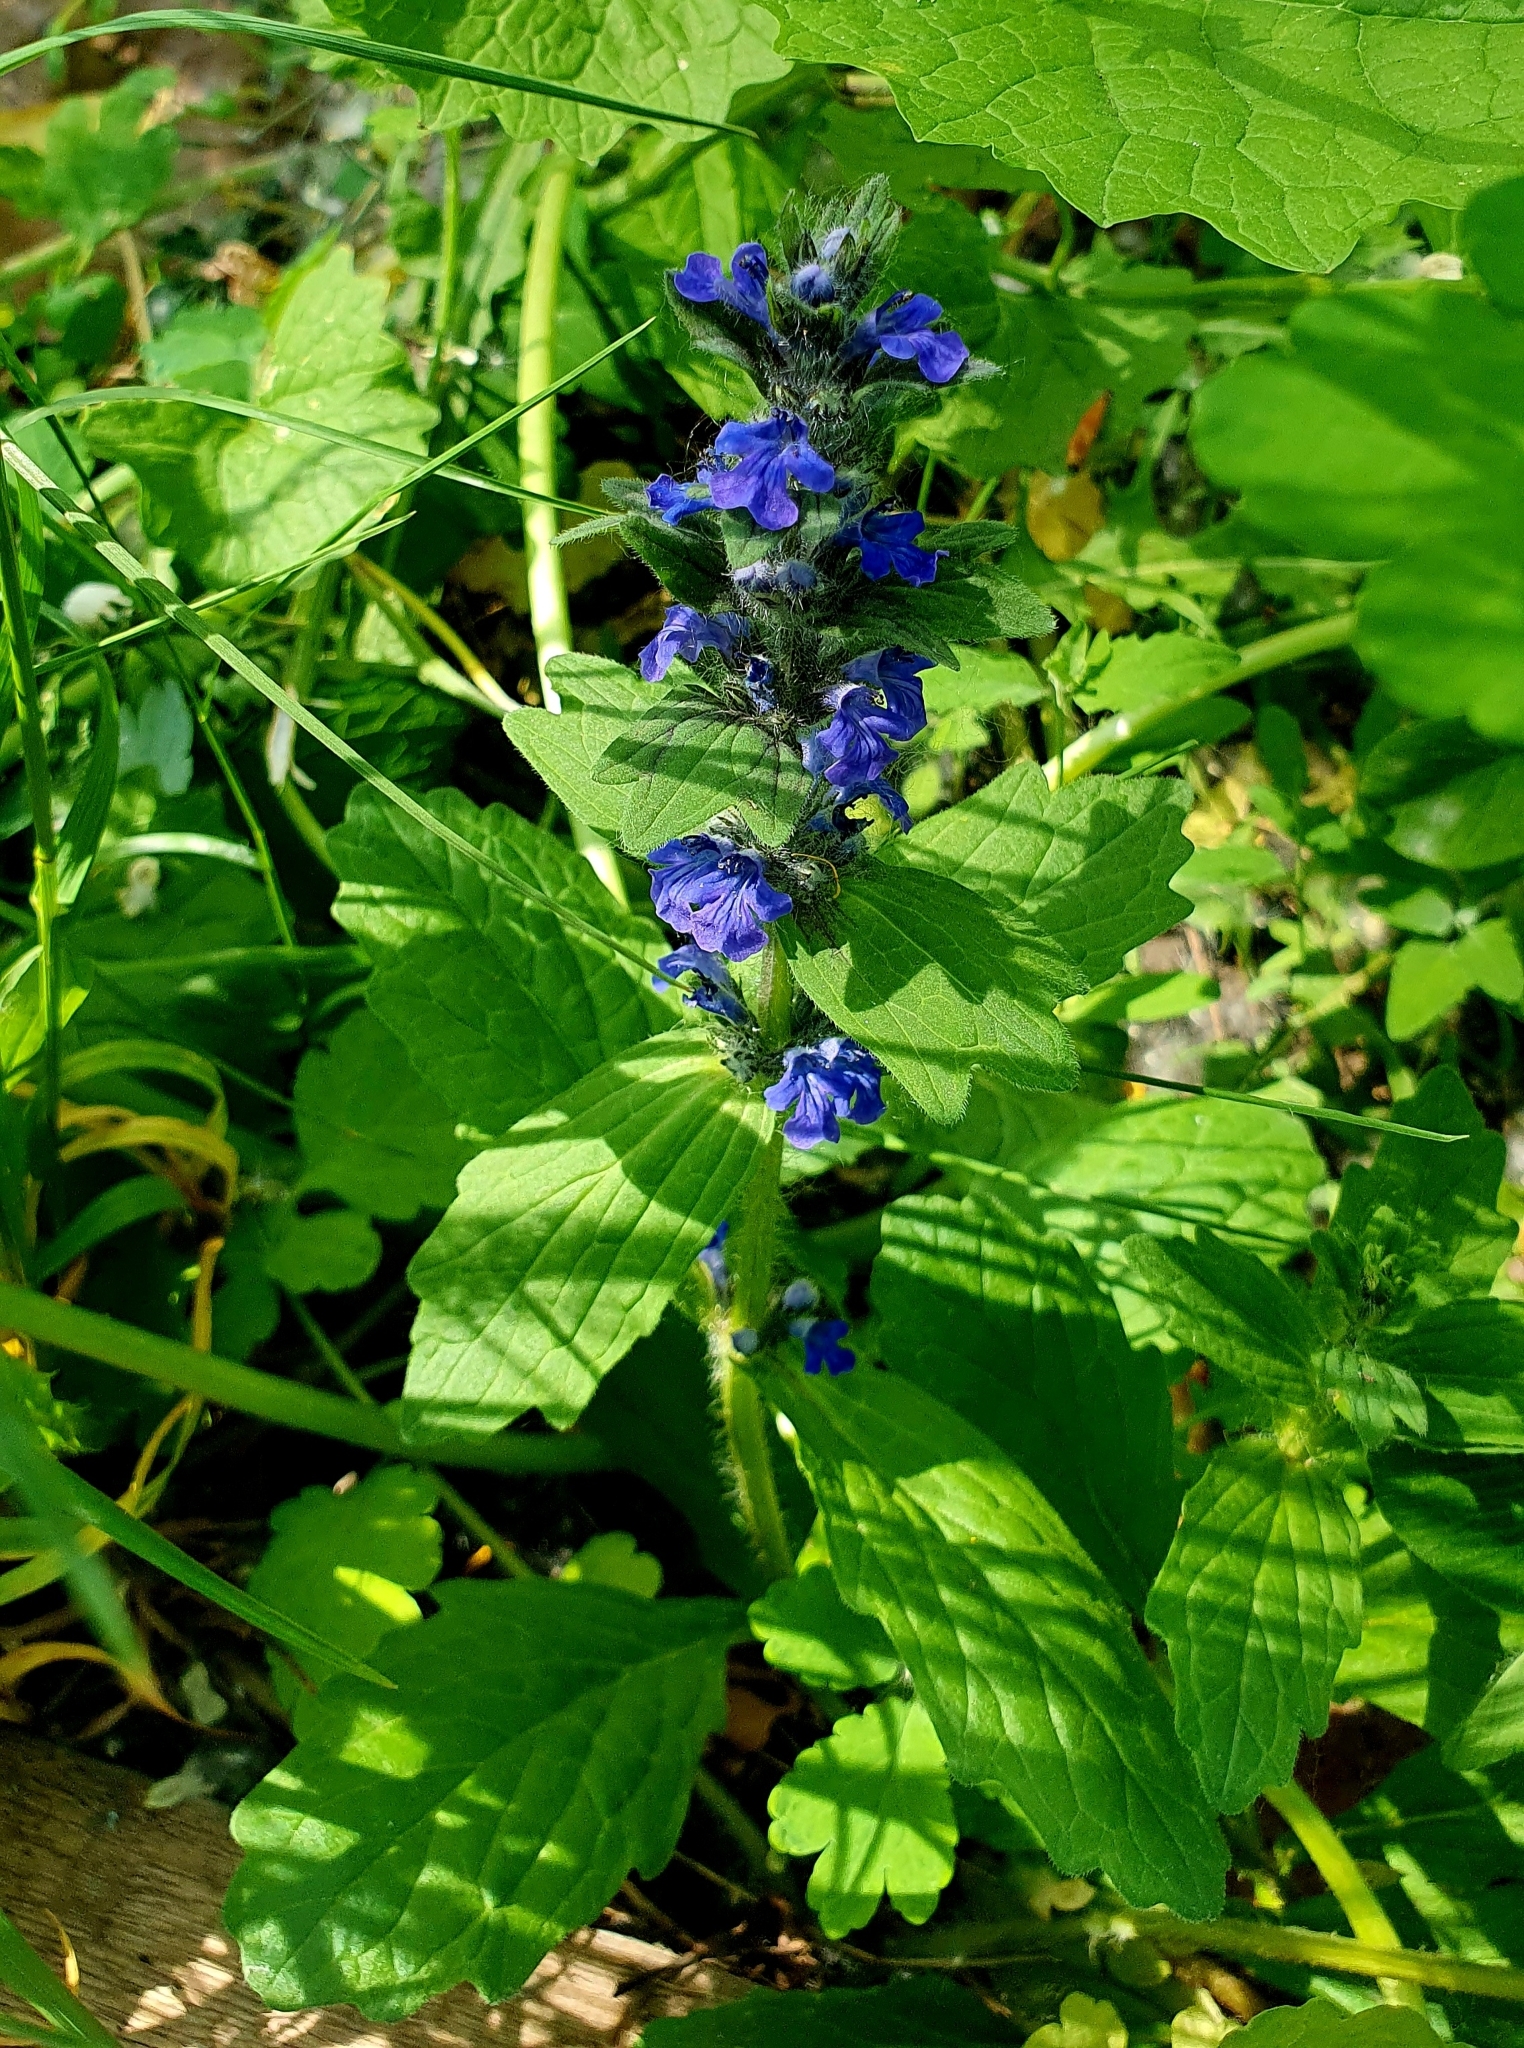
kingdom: Plantae
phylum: Tracheophyta
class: Magnoliopsida
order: Lamiales
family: Lamiaceae
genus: Ajuga
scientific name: Ajuga genevensis
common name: Blue bugle
